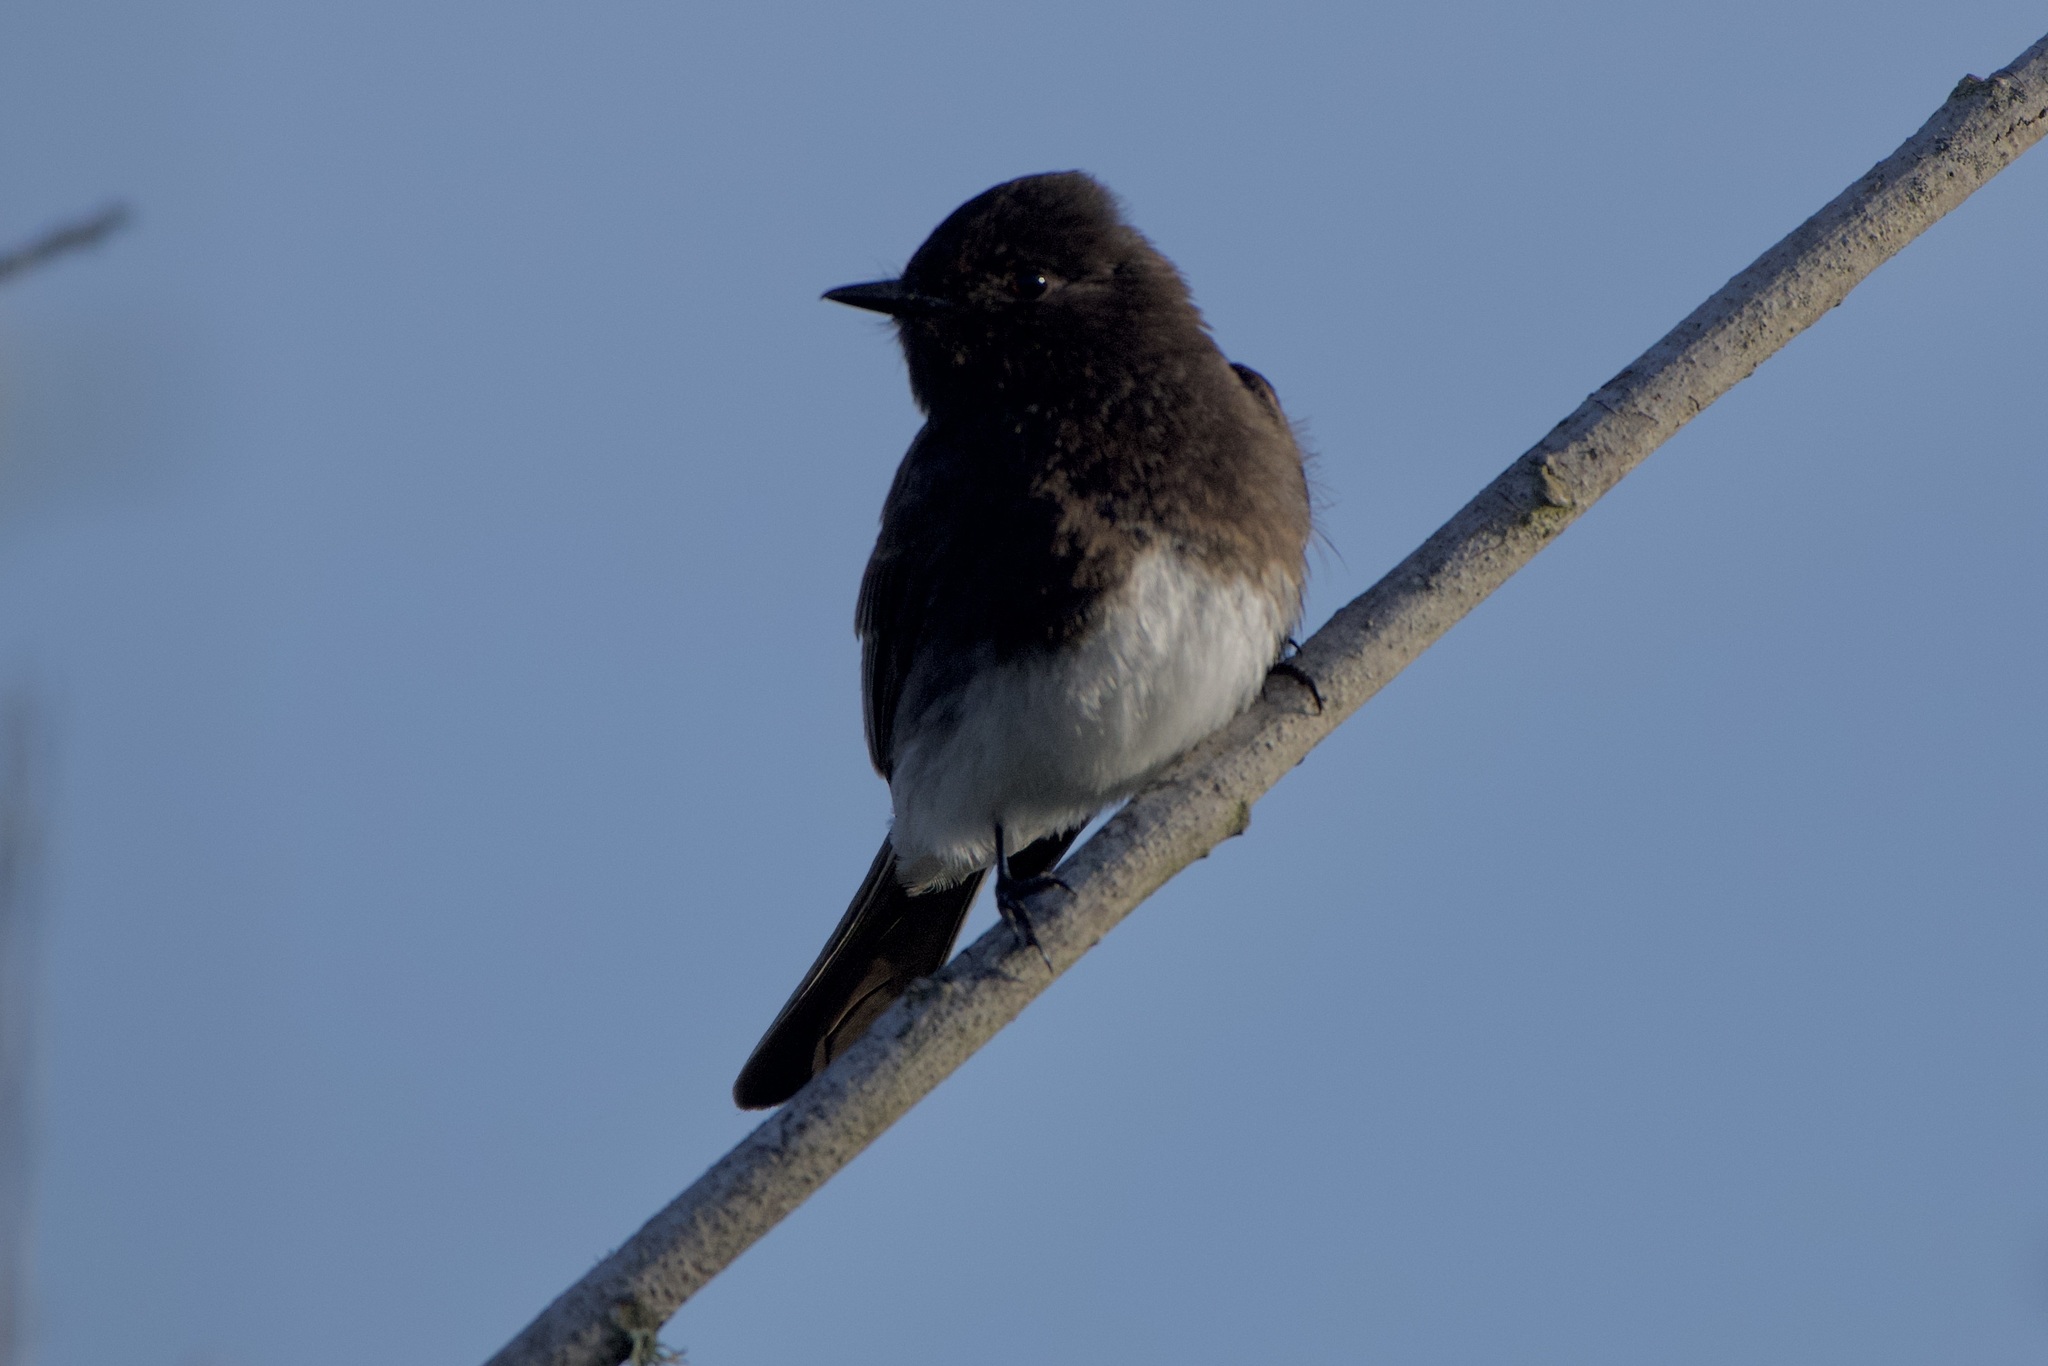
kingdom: Animalia
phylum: Chordata
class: Aves
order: Passeriformes
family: Tyrannidae
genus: Sayornis
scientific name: Sayornis nigricans
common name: Black phoebe
